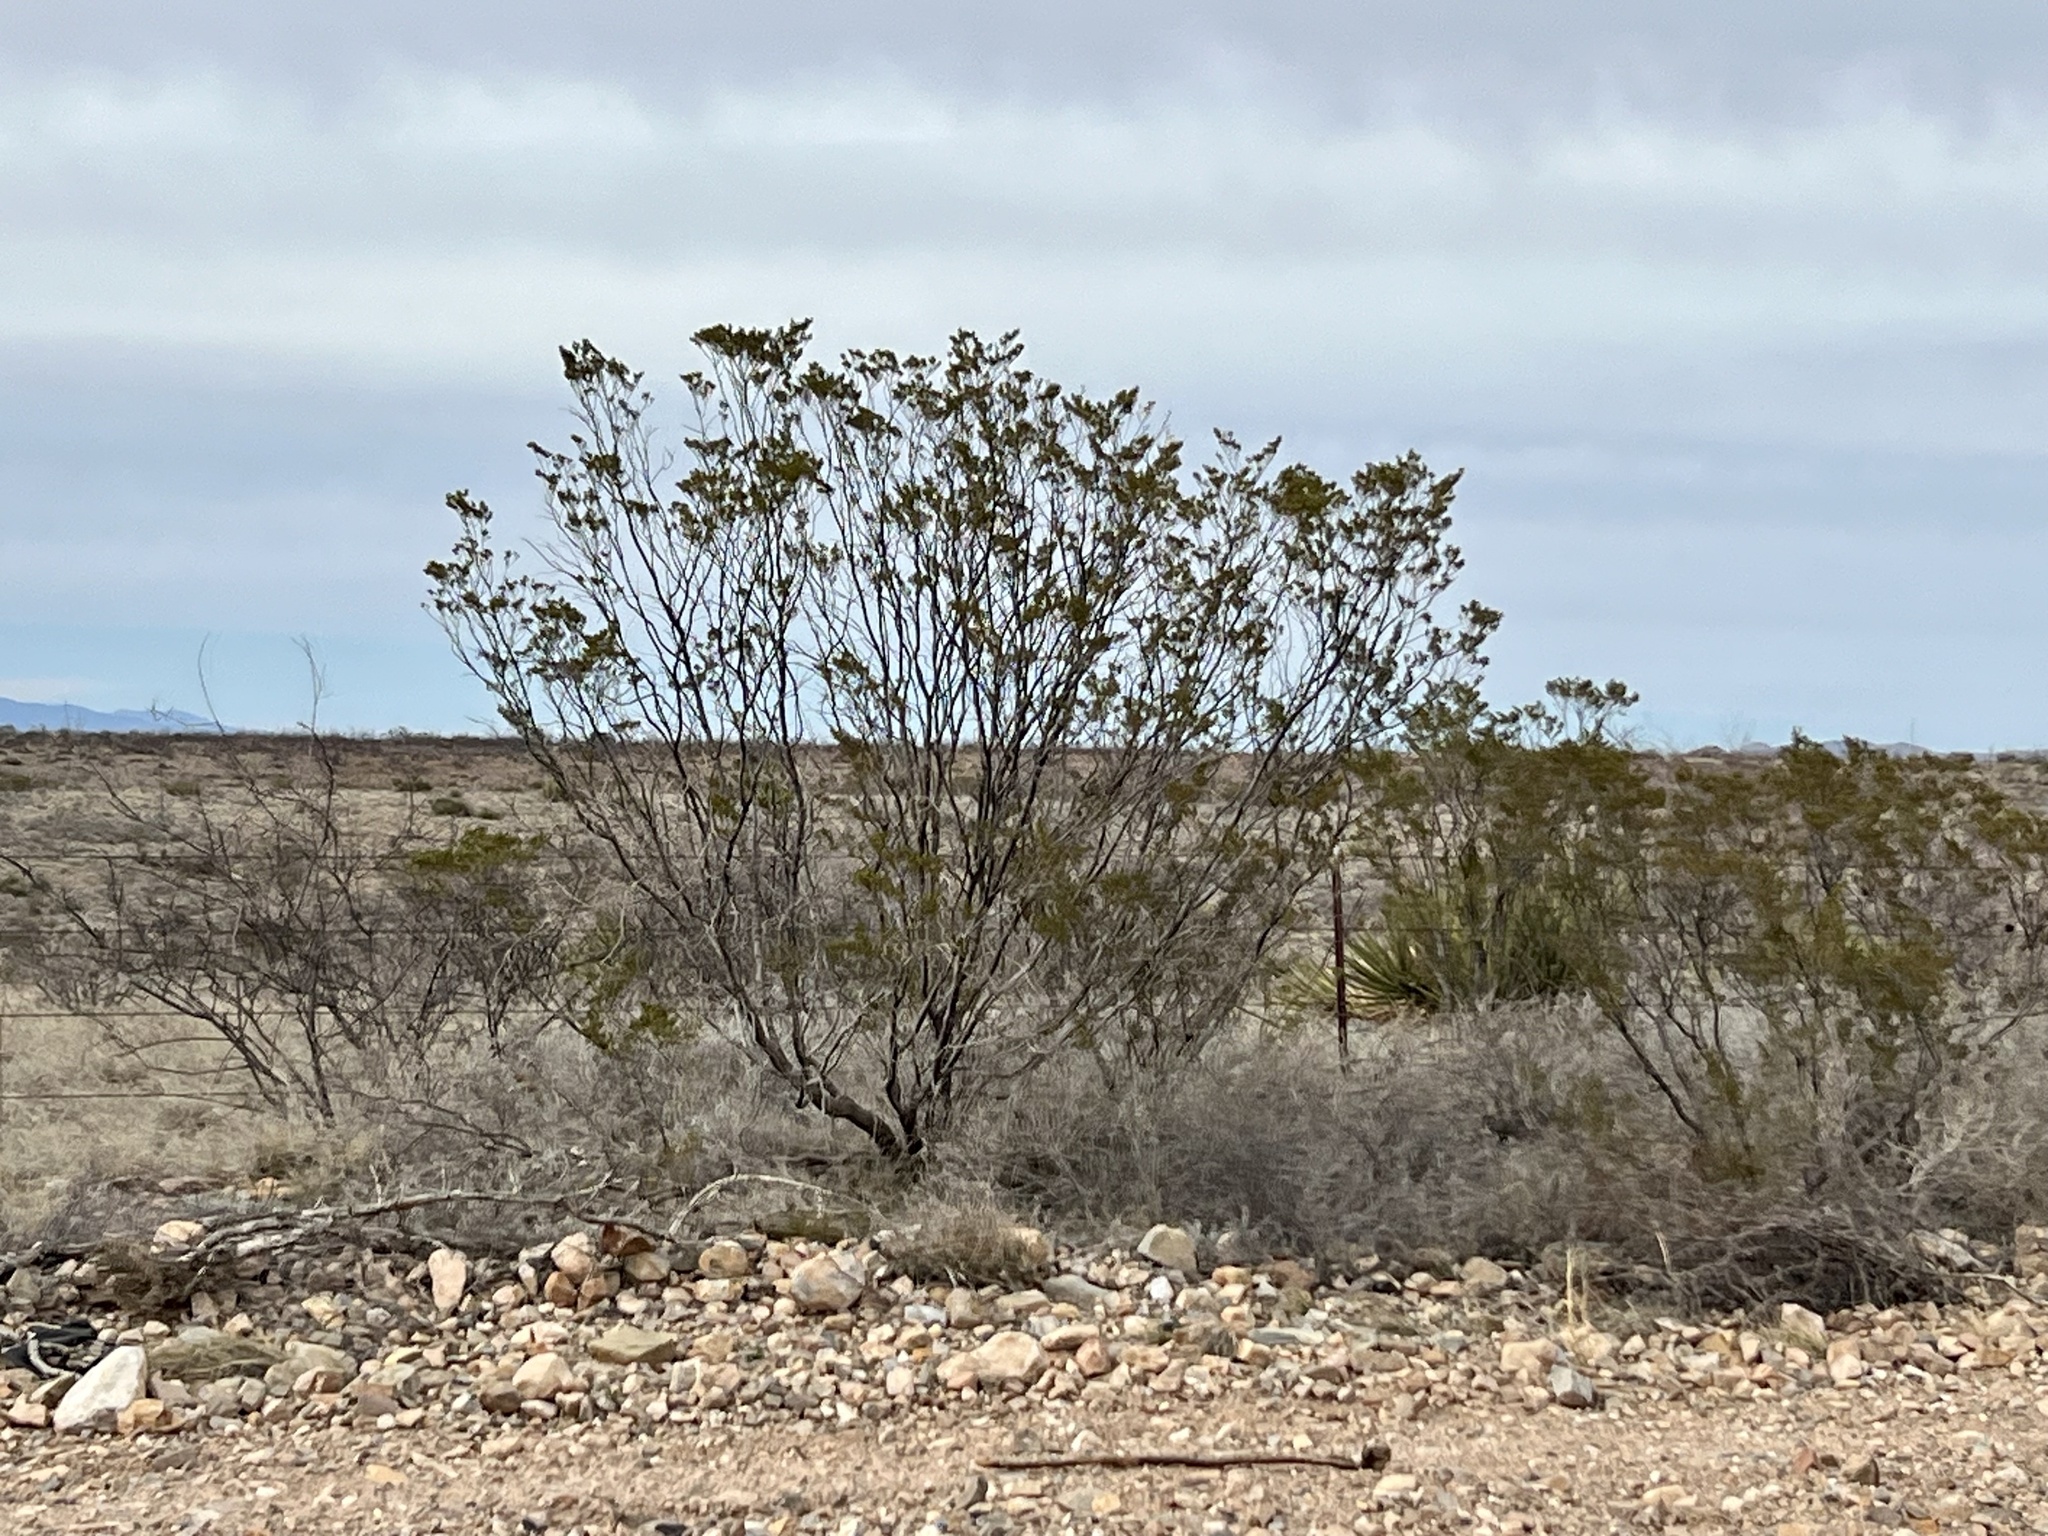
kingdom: Plantae
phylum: Tracheophyta
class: Magnoliopsida
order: Zygophyllales
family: Zygophyllaceae
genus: Larrea
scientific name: Larrea tridentata
